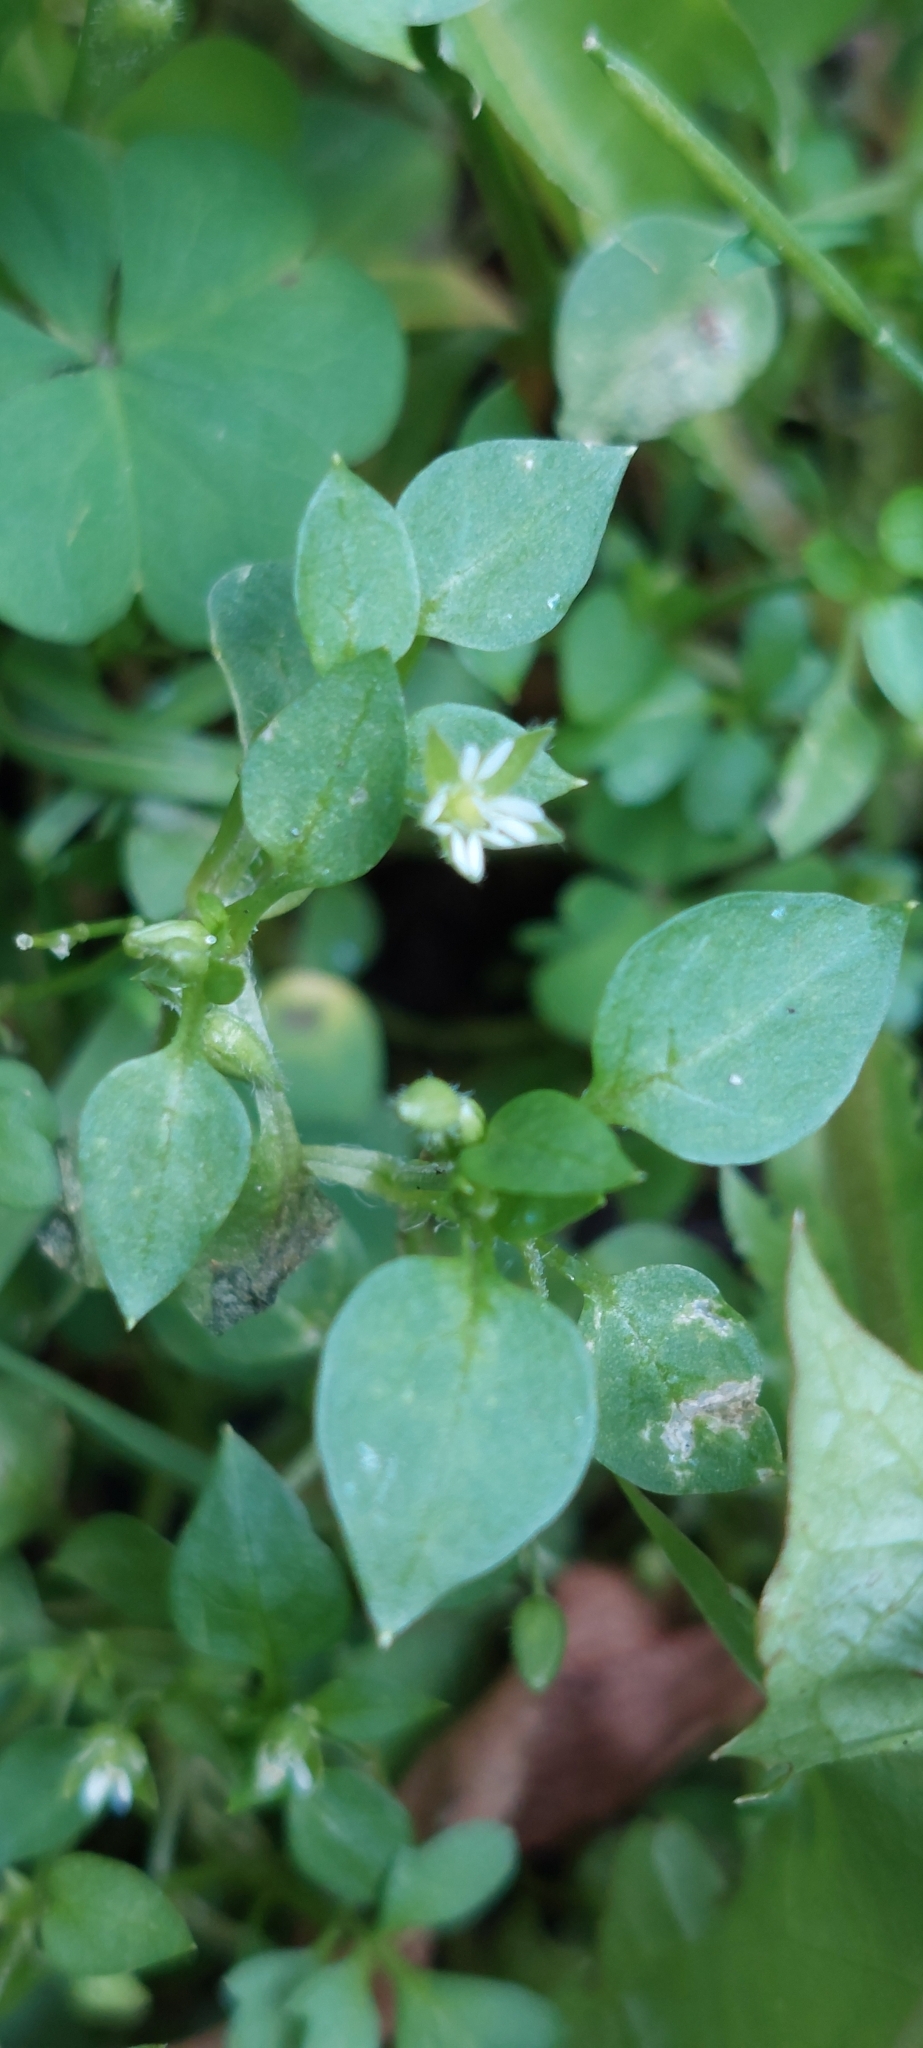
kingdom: Plantae
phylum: Tracheophyta
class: Magnoliopsida
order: Caryophyllales
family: Caryophyllaceae
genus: Stellaria
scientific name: Stellaria media
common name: Common chickweed
